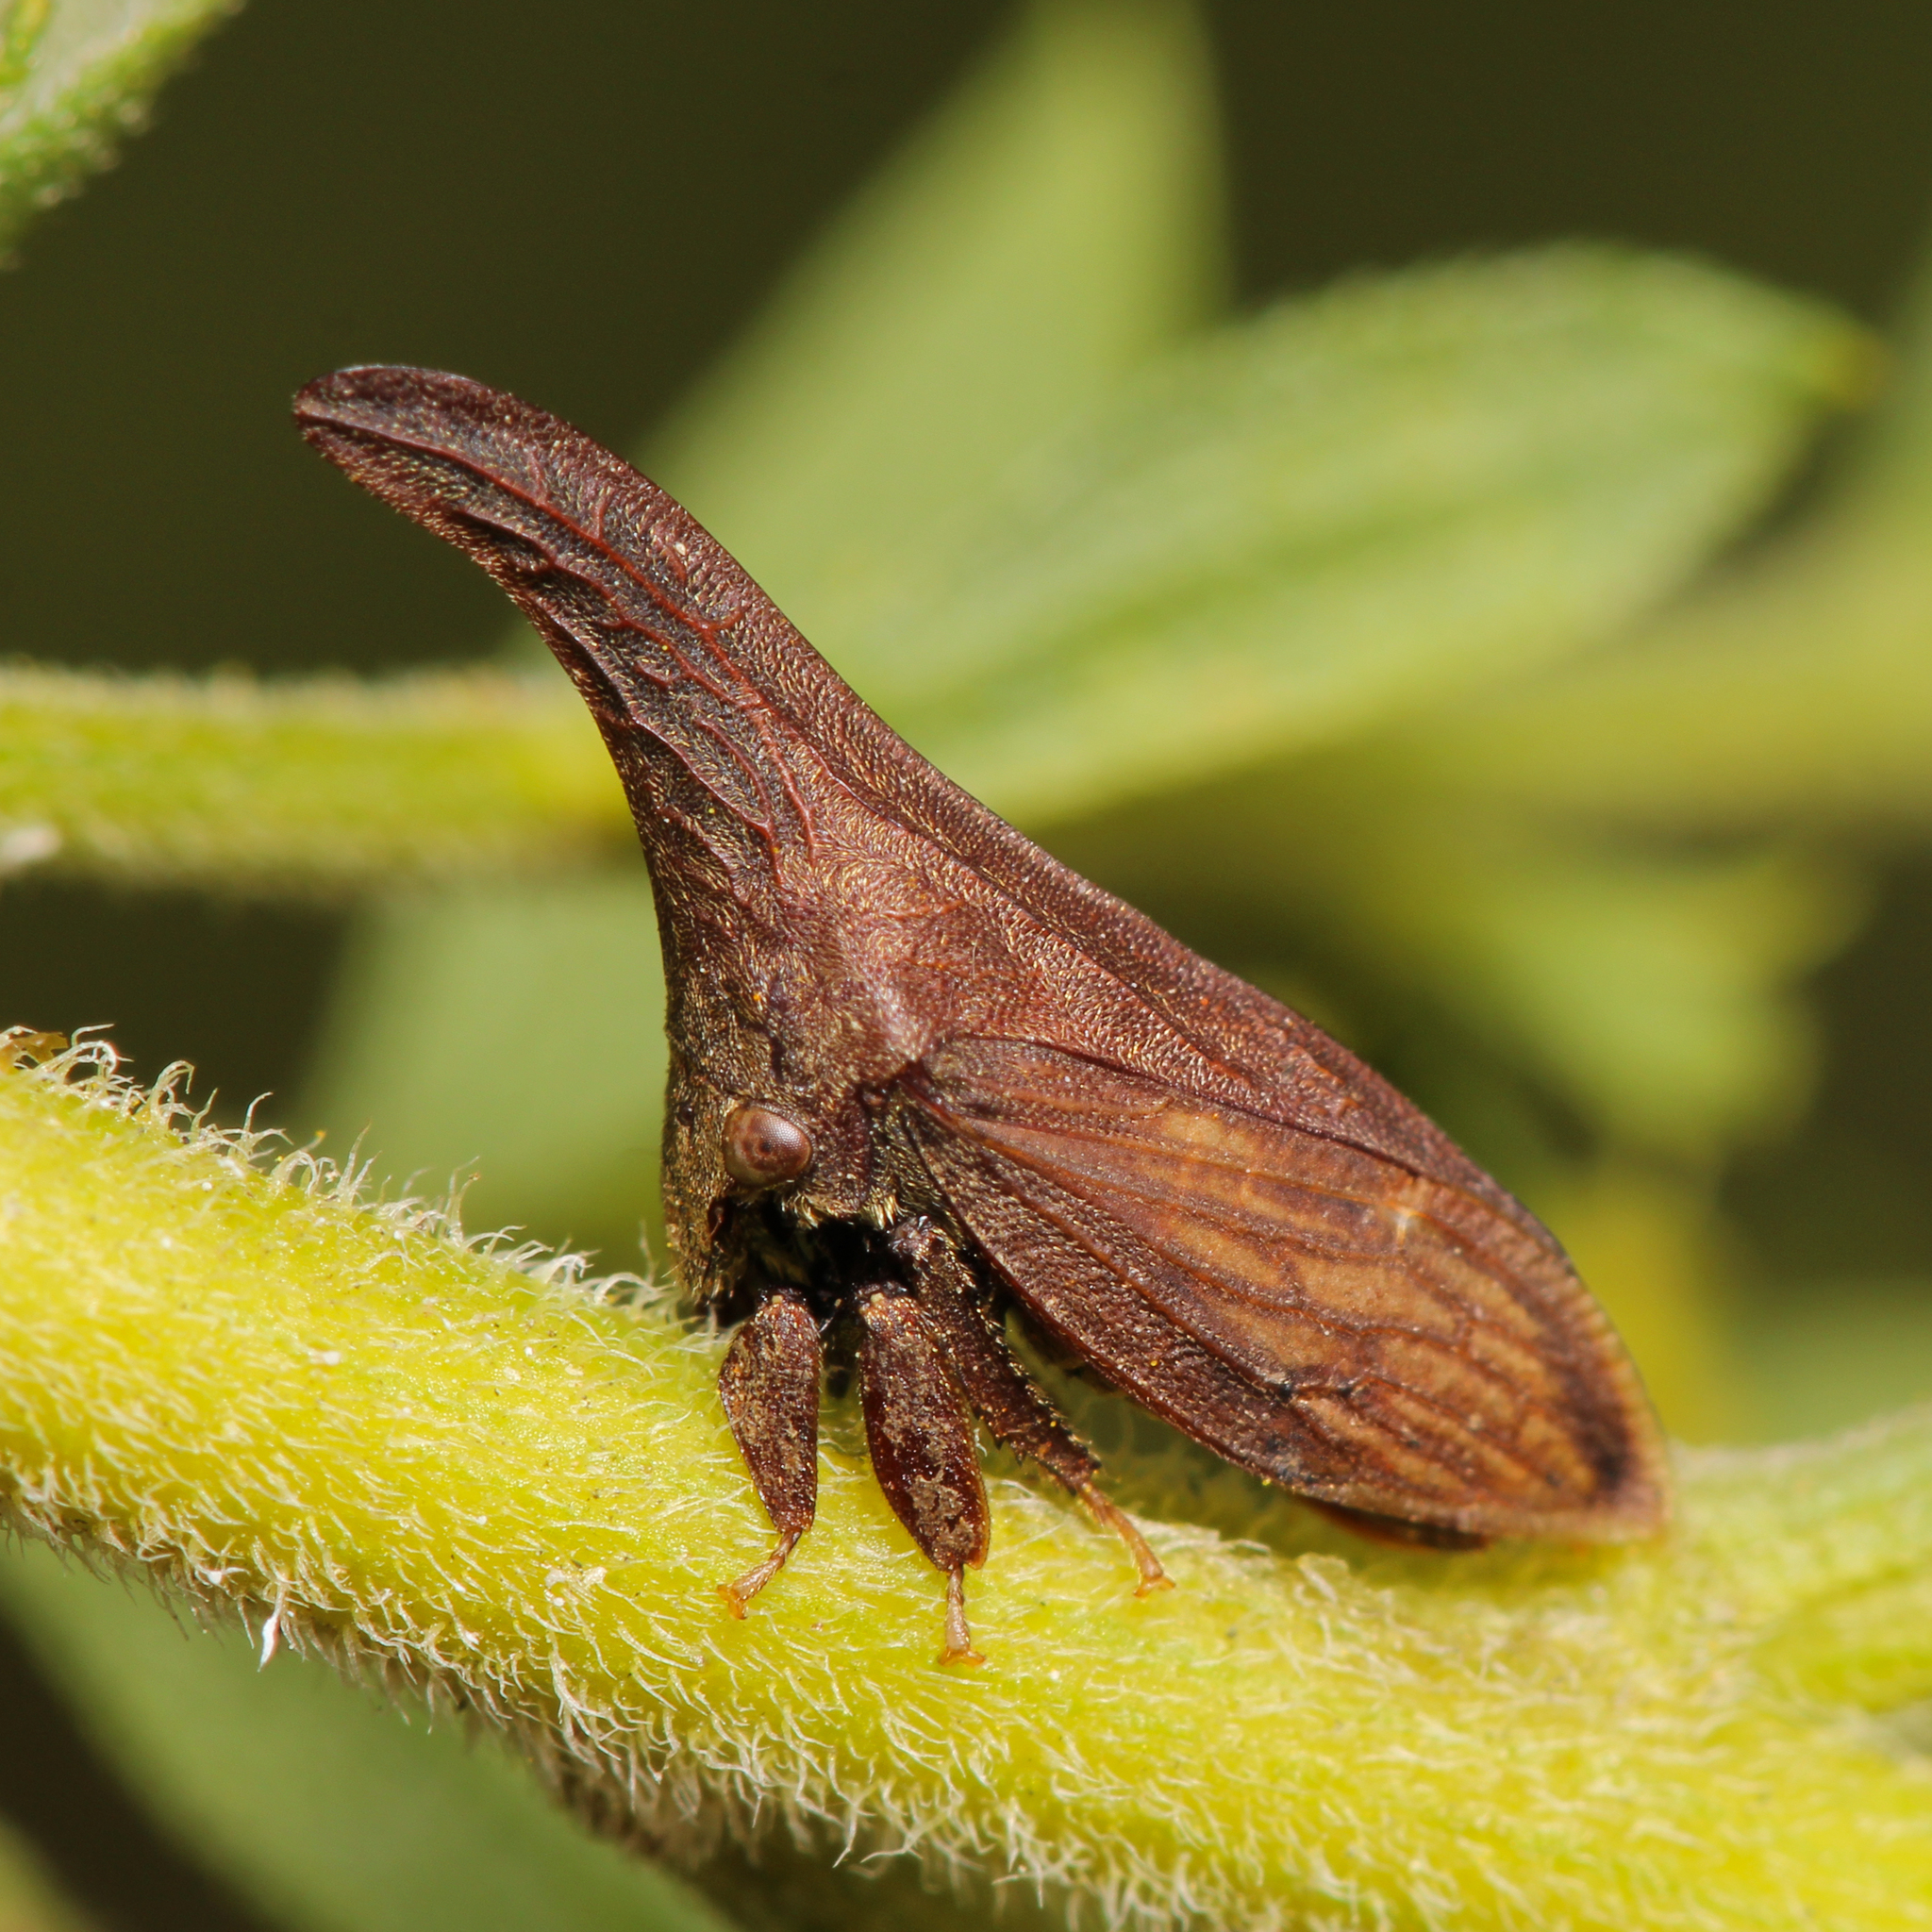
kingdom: Animalia
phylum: Arthropoda
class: Insecta
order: Hemiptera
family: Membracidae
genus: Enchenopa
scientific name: Enchenopa latipes
